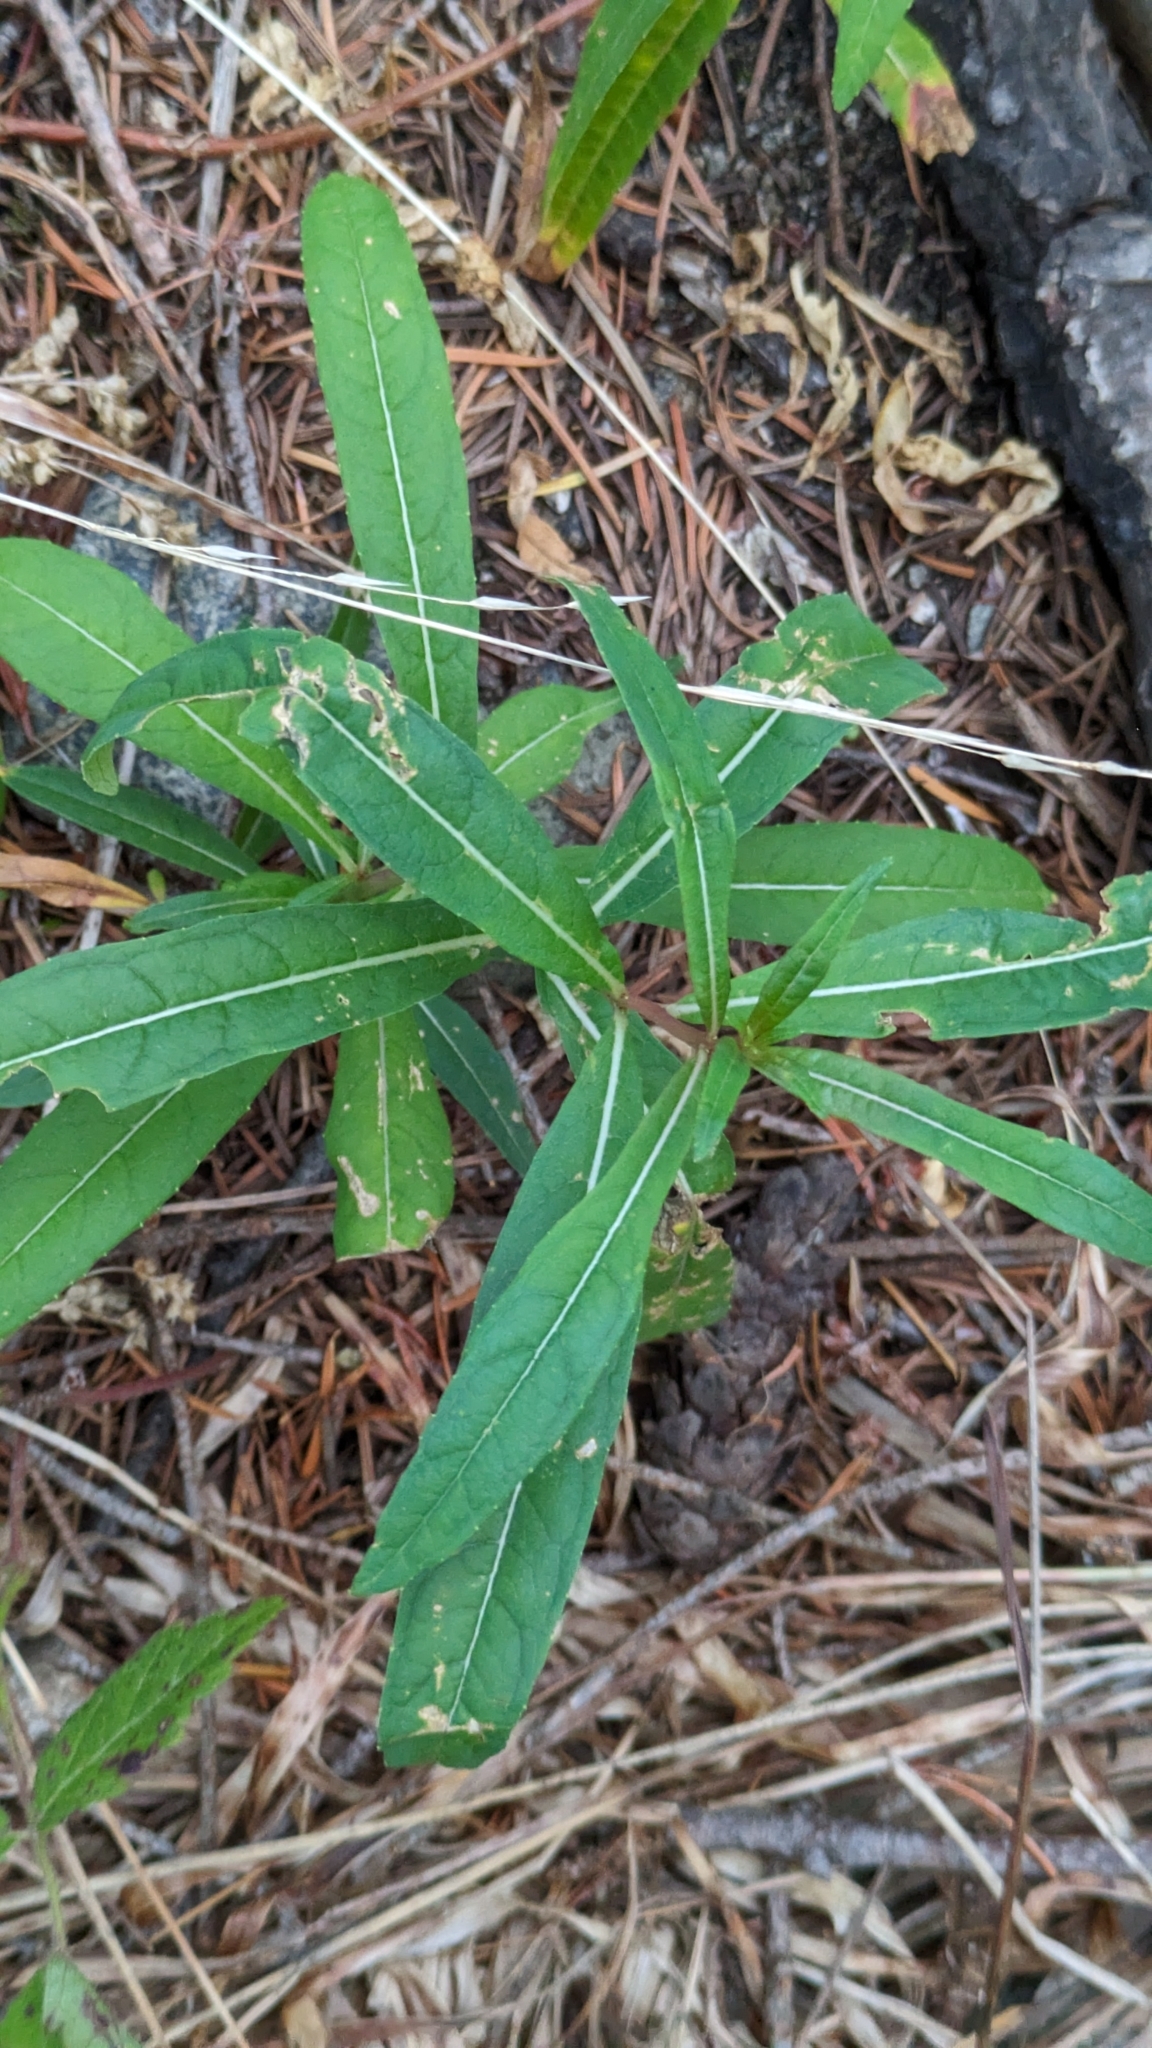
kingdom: Plantae
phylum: Tracheophyta
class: Magnoliopsida
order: Myrtales
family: Onagraceae
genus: Chamaenerion
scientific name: Chamaenerion angustifolium
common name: Fireweed
